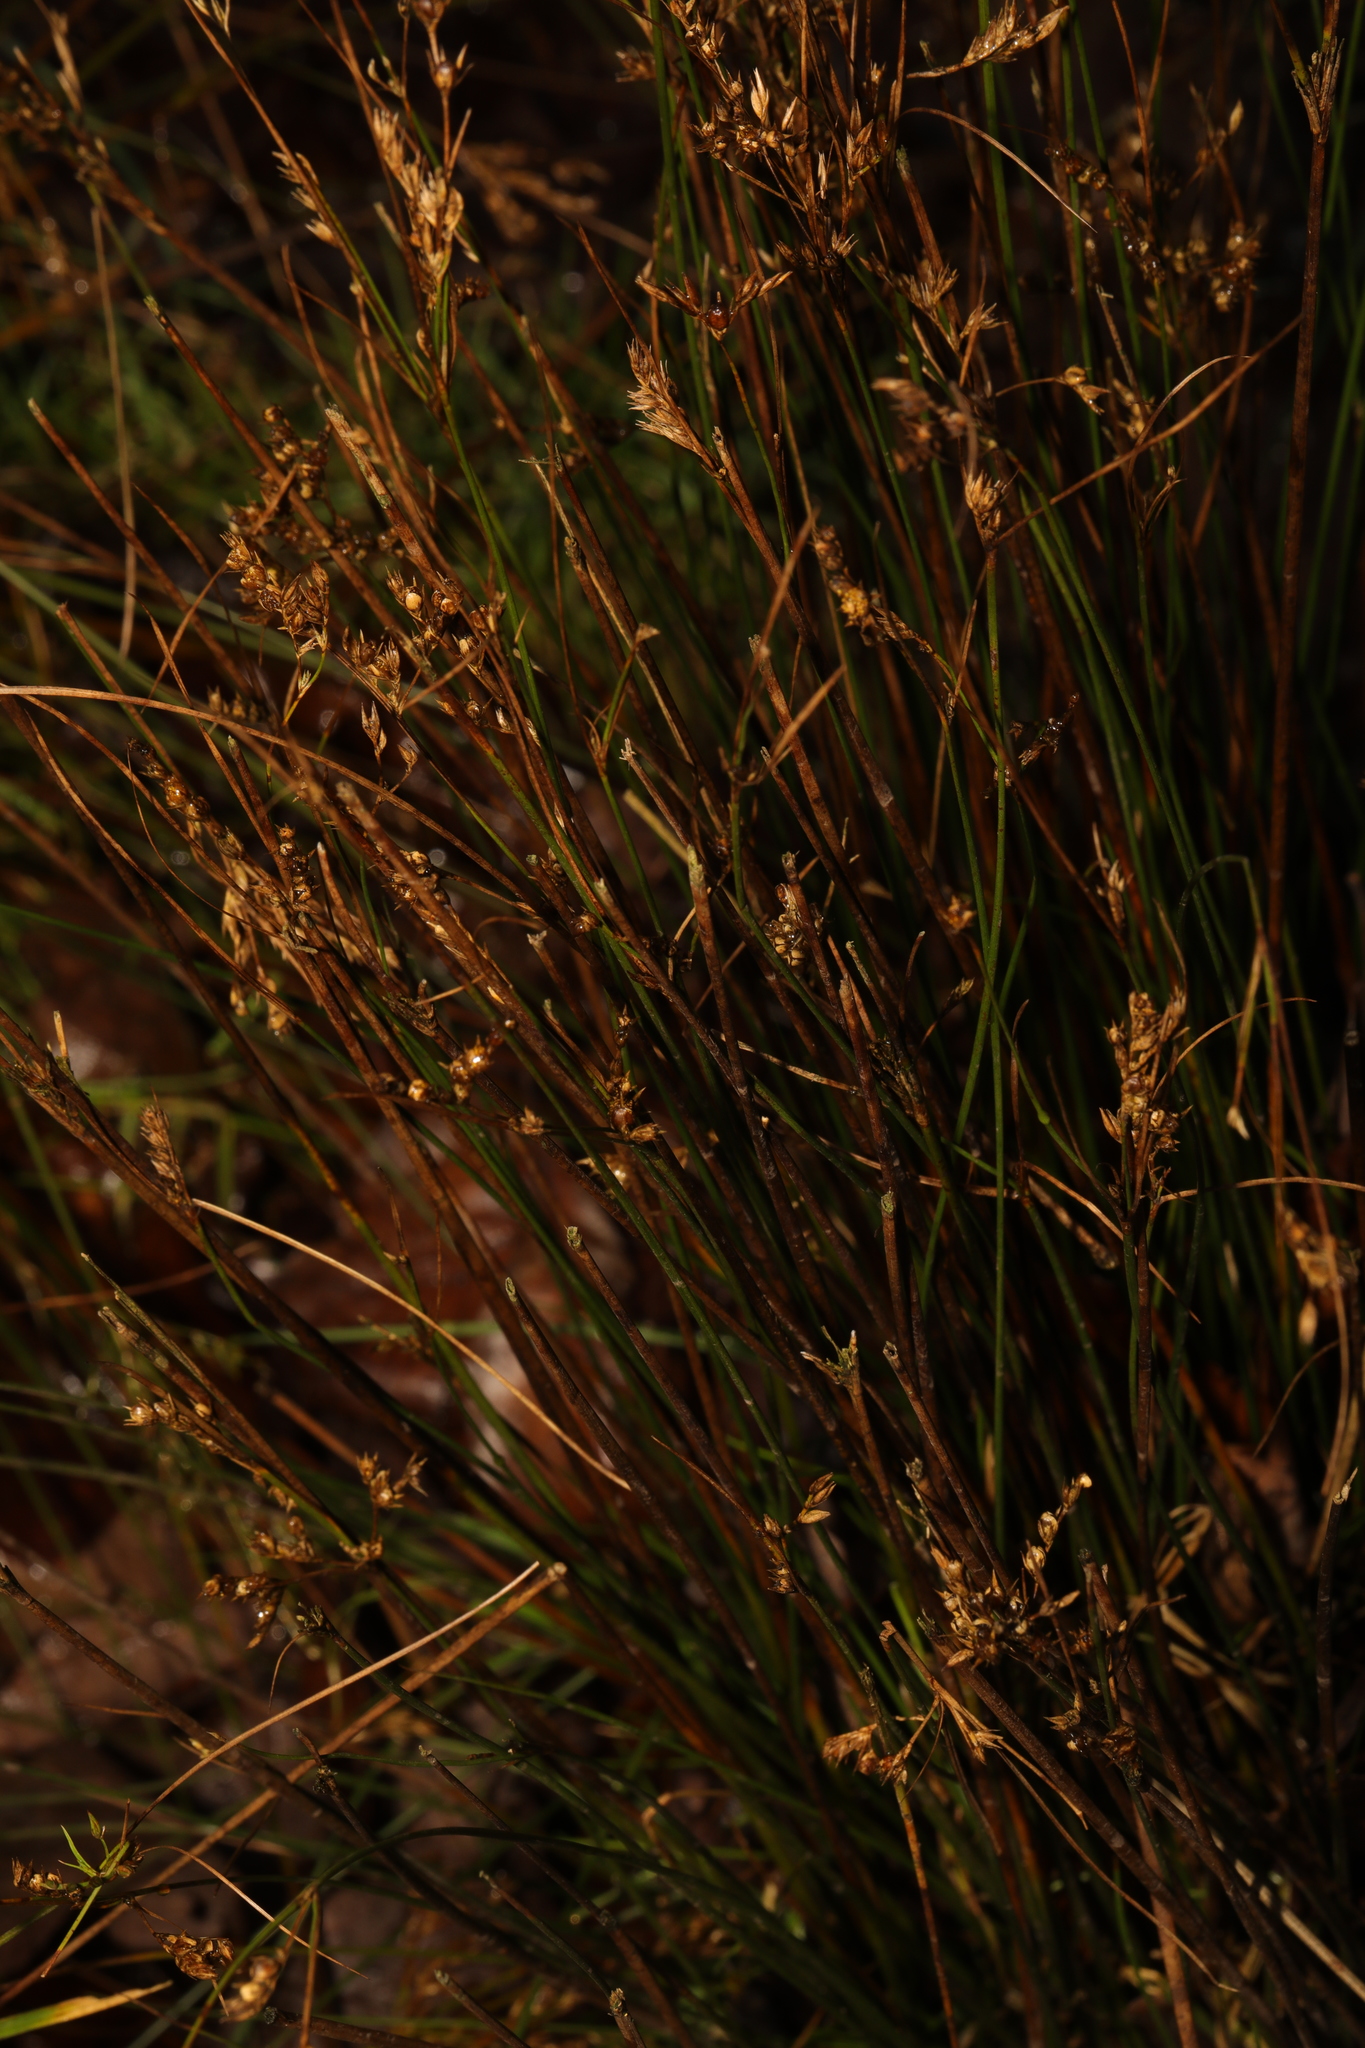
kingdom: Plantae
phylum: Tracheophyta
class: Liliopsida
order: Poales
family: Juncaceae
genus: Juncus
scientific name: Juncus tenuis
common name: Slender rush
